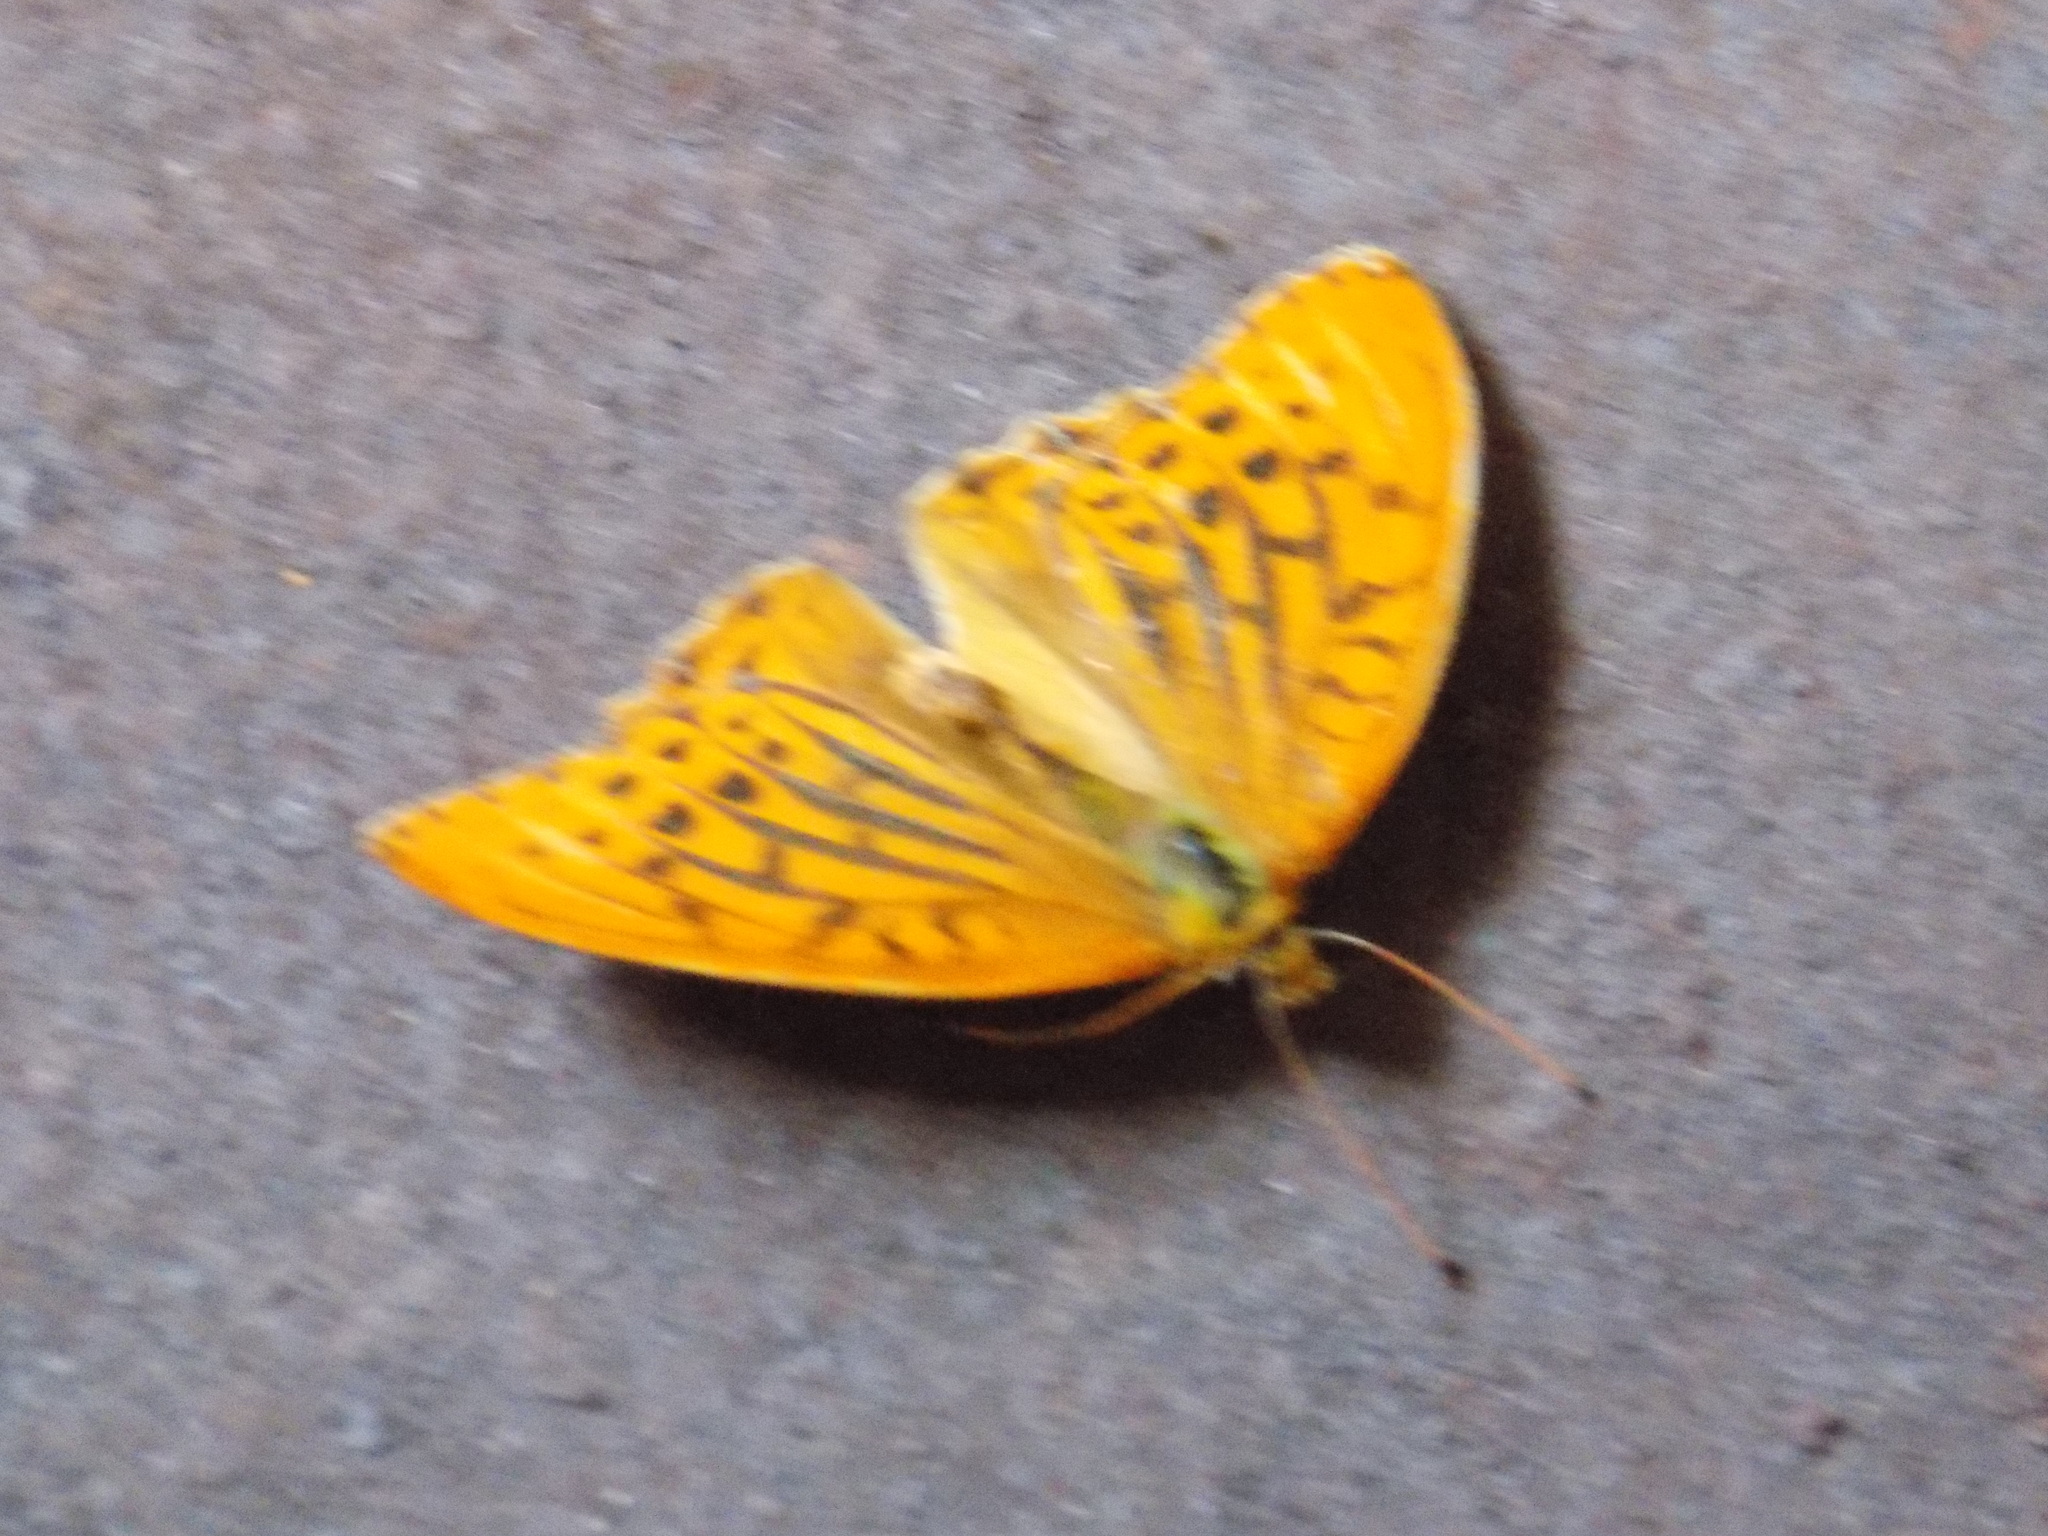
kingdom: Animalia
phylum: Arthropoda
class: Insecta
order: Lepidoptera
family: Nymphalidae
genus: Argynnis
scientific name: Argynnis paphia
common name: Silver-washed fritillary
